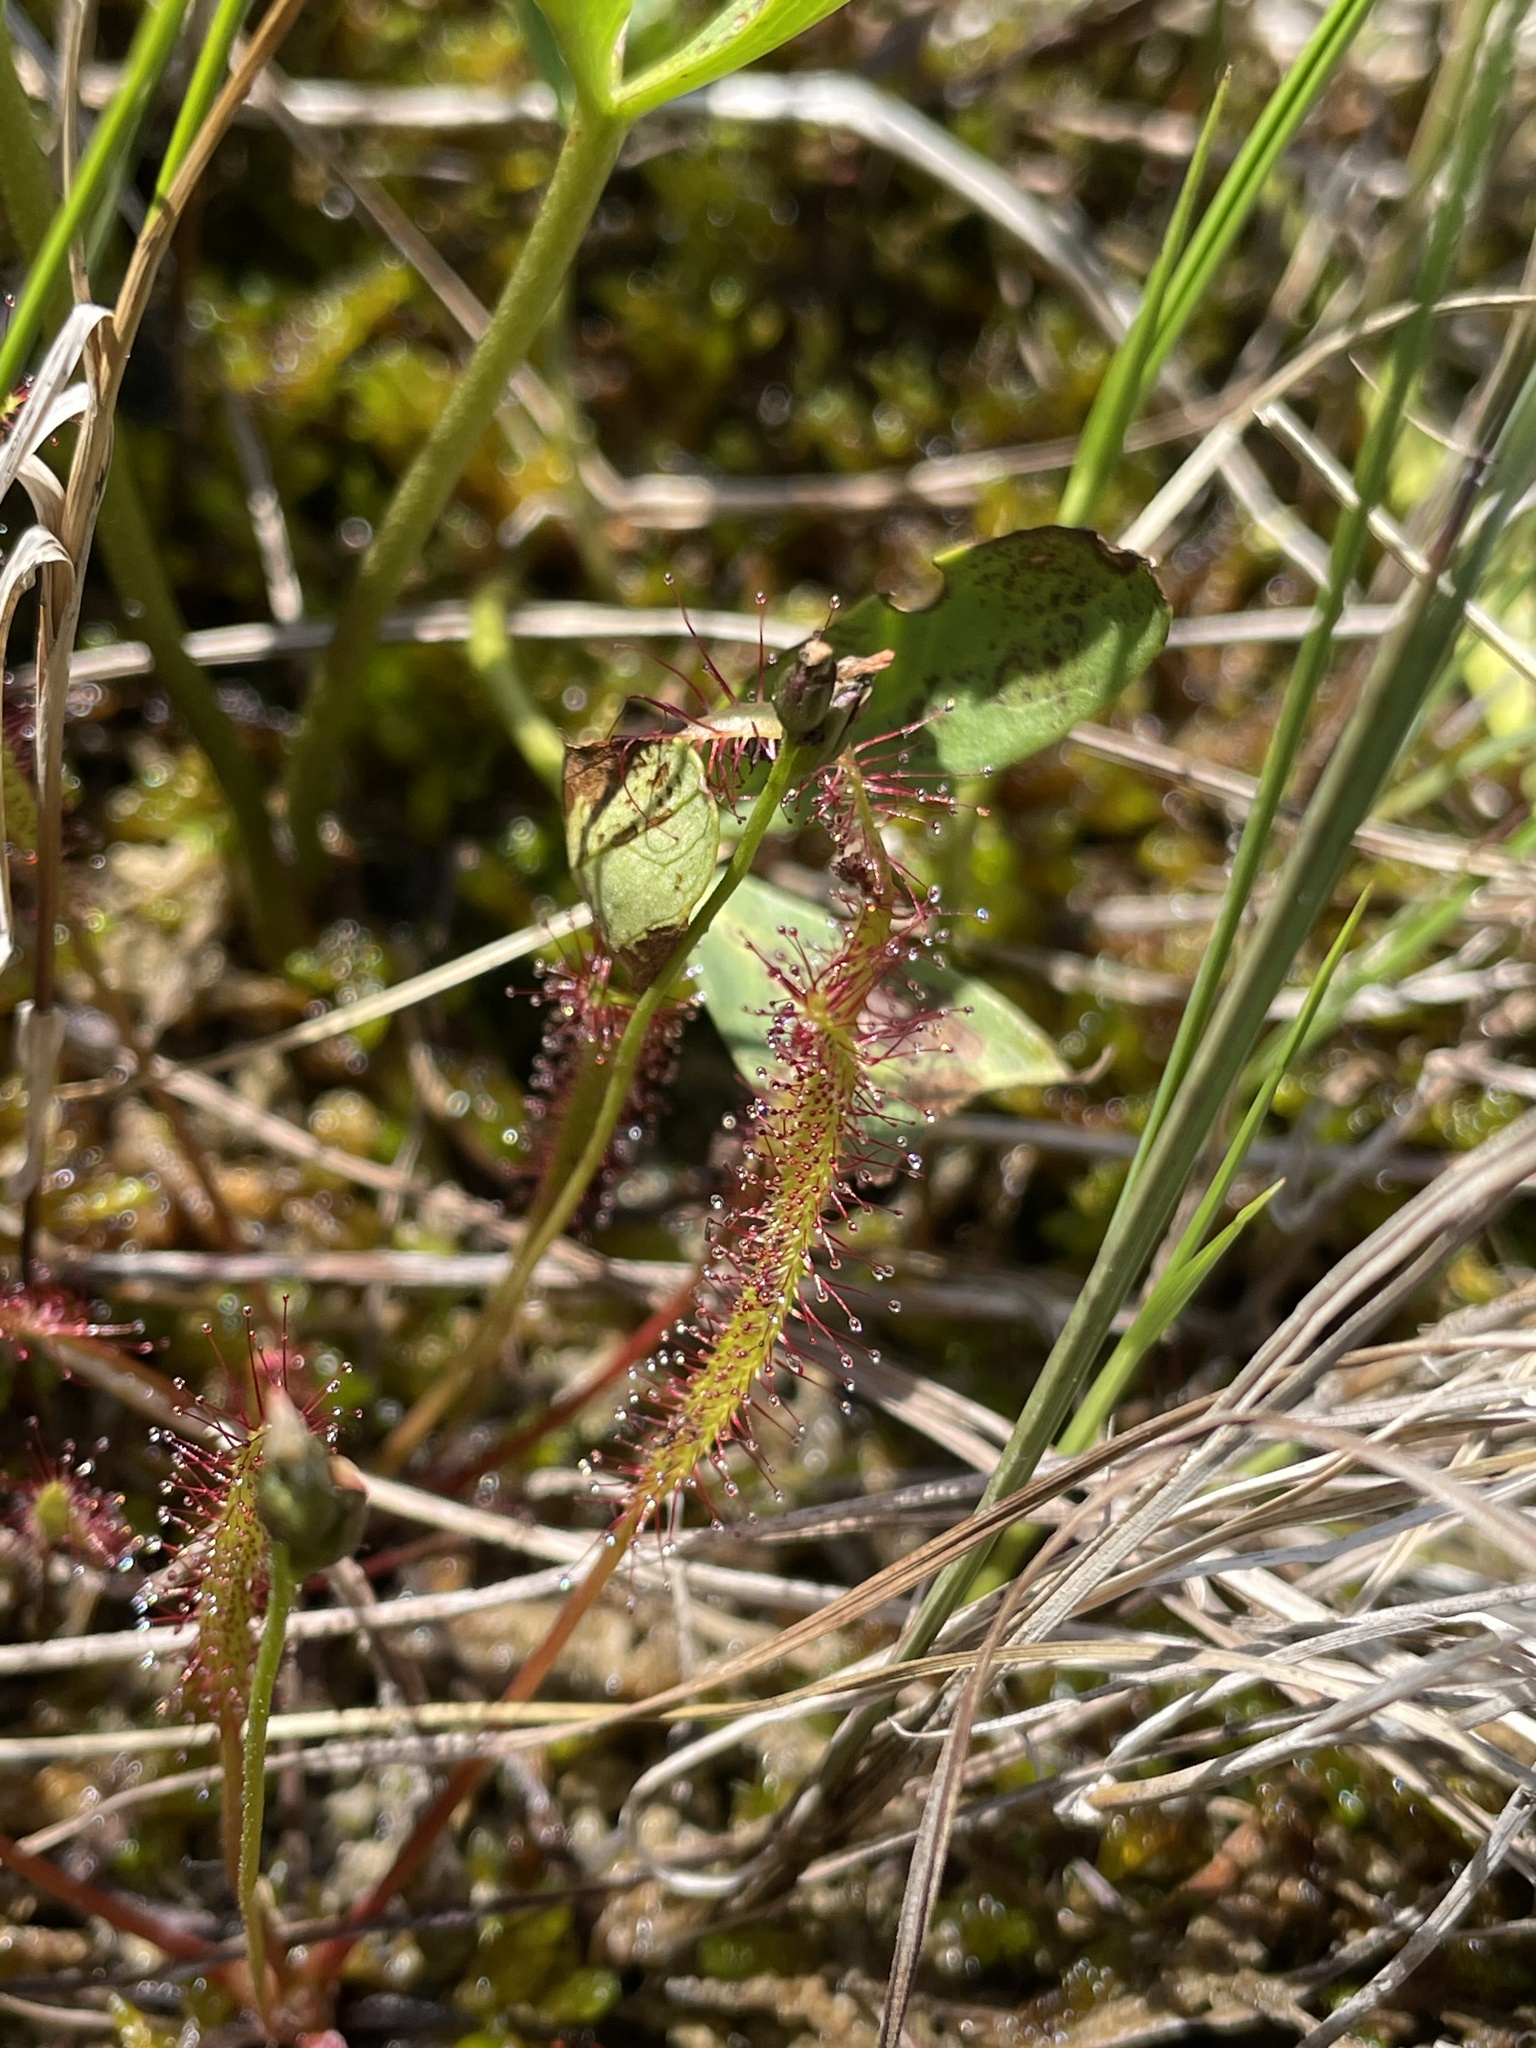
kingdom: Plantae
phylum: Tracheophyta
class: Magnoliopsida
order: Caryophyllales
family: Droseraceae
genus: Drosera
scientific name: Drosera linearis
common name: Linear-leaved sundew
